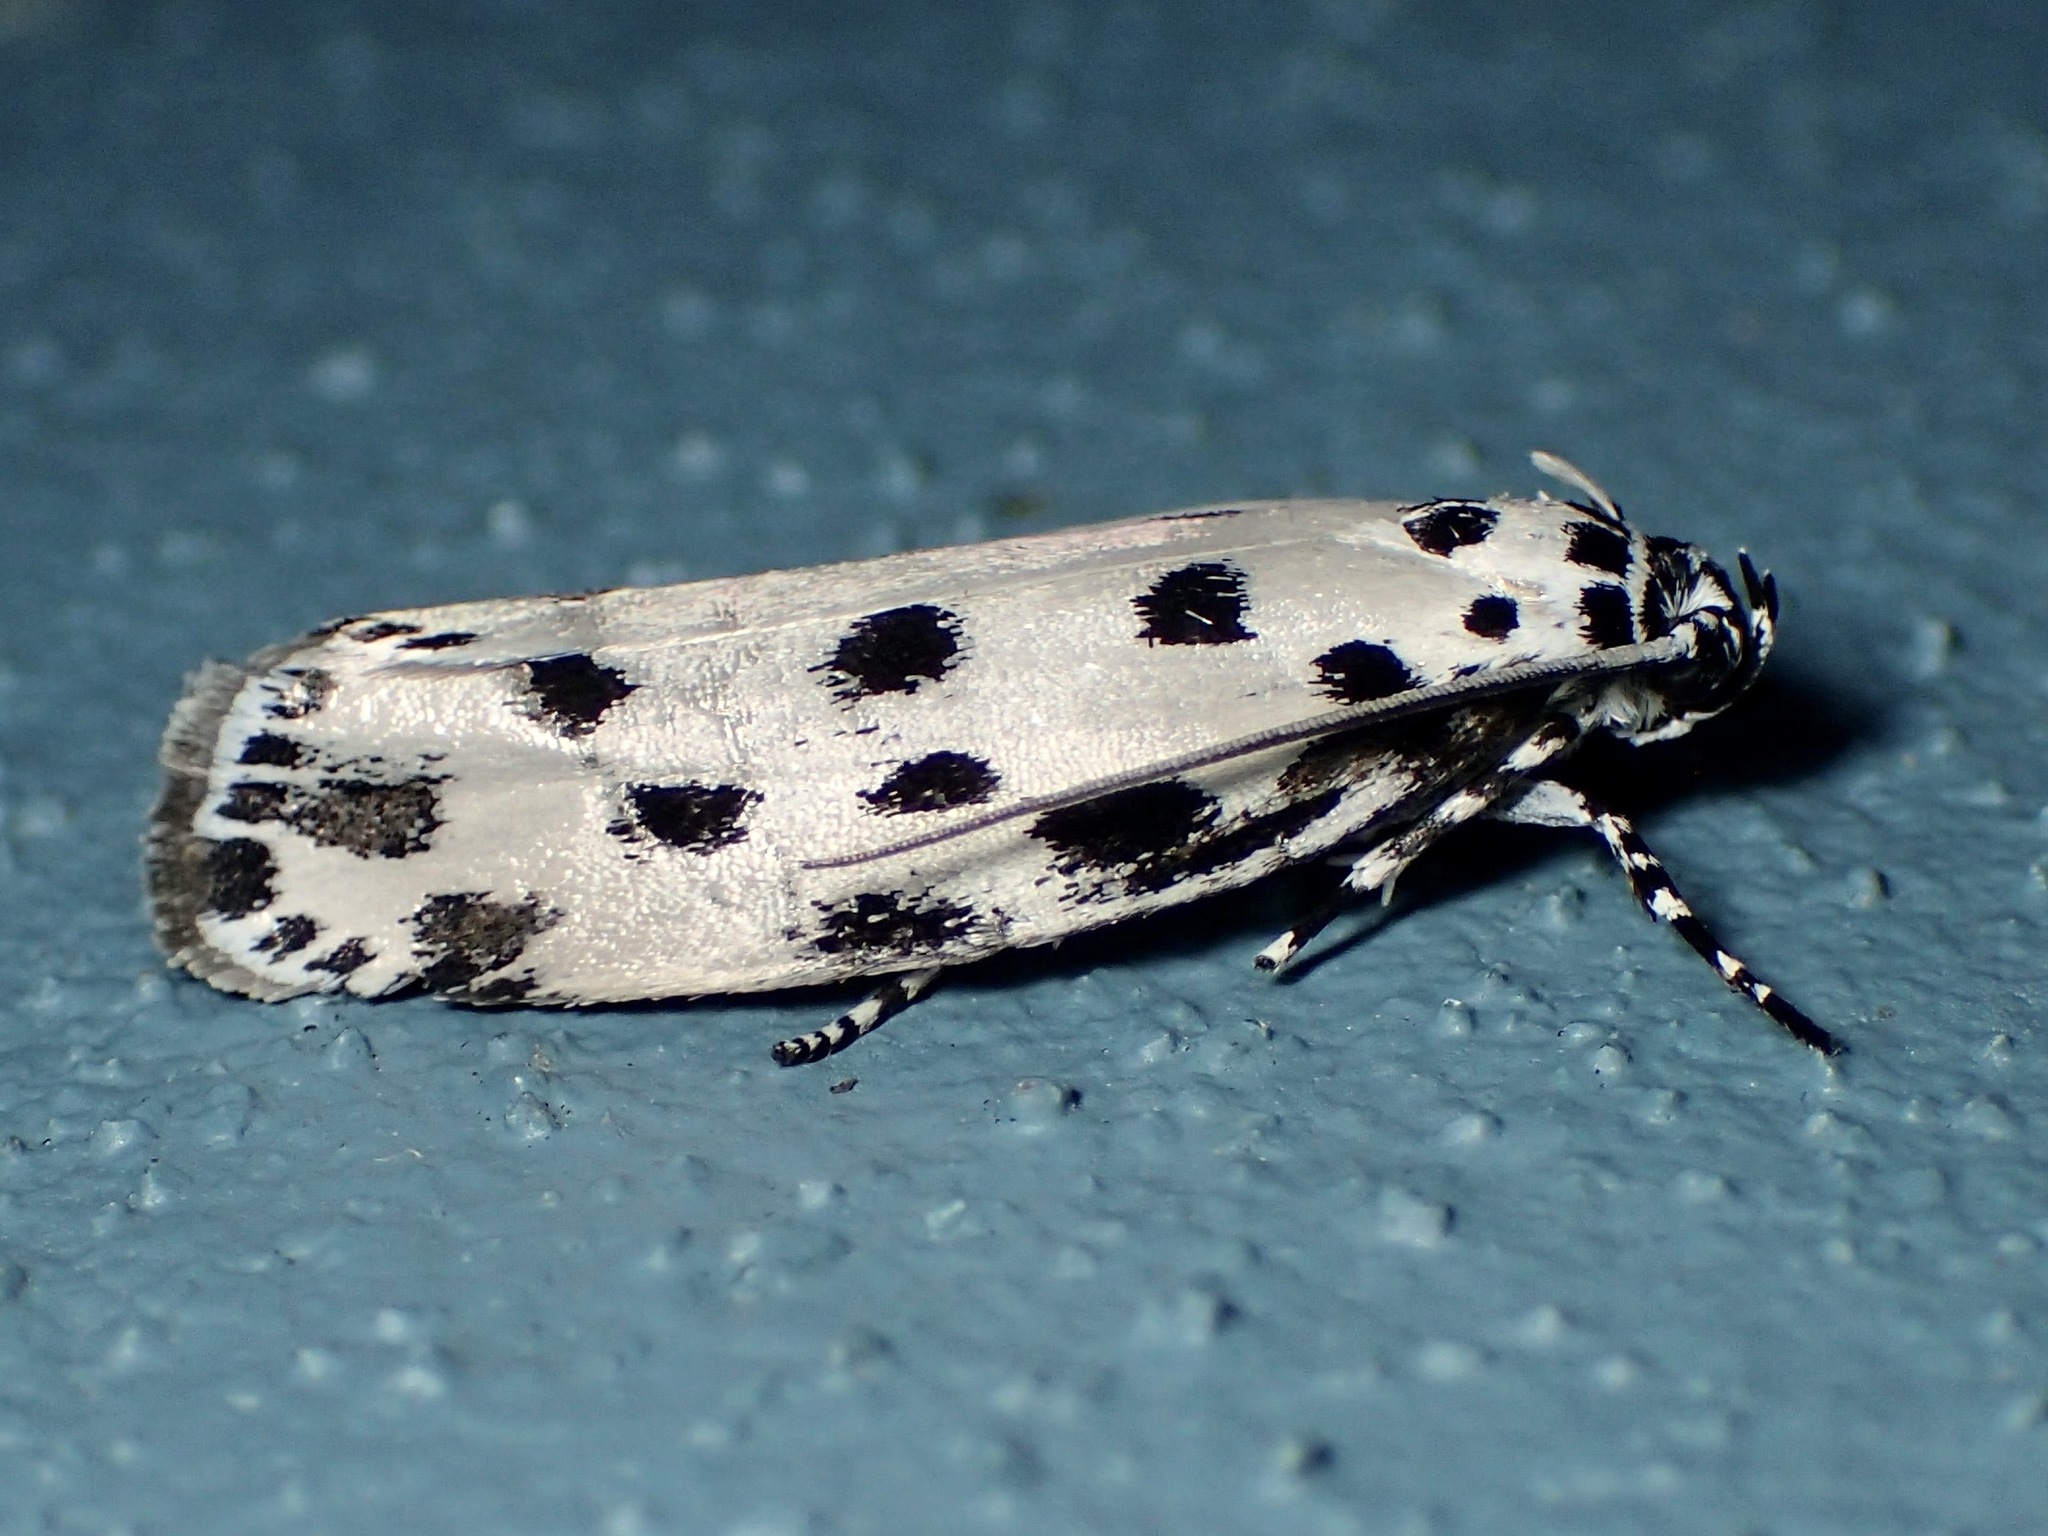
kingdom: Animalia
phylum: Arthropoda
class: Insecta
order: Lepidoptera
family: Ethmiidae
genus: Ethmia
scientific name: Ethmia sphaerosticha
